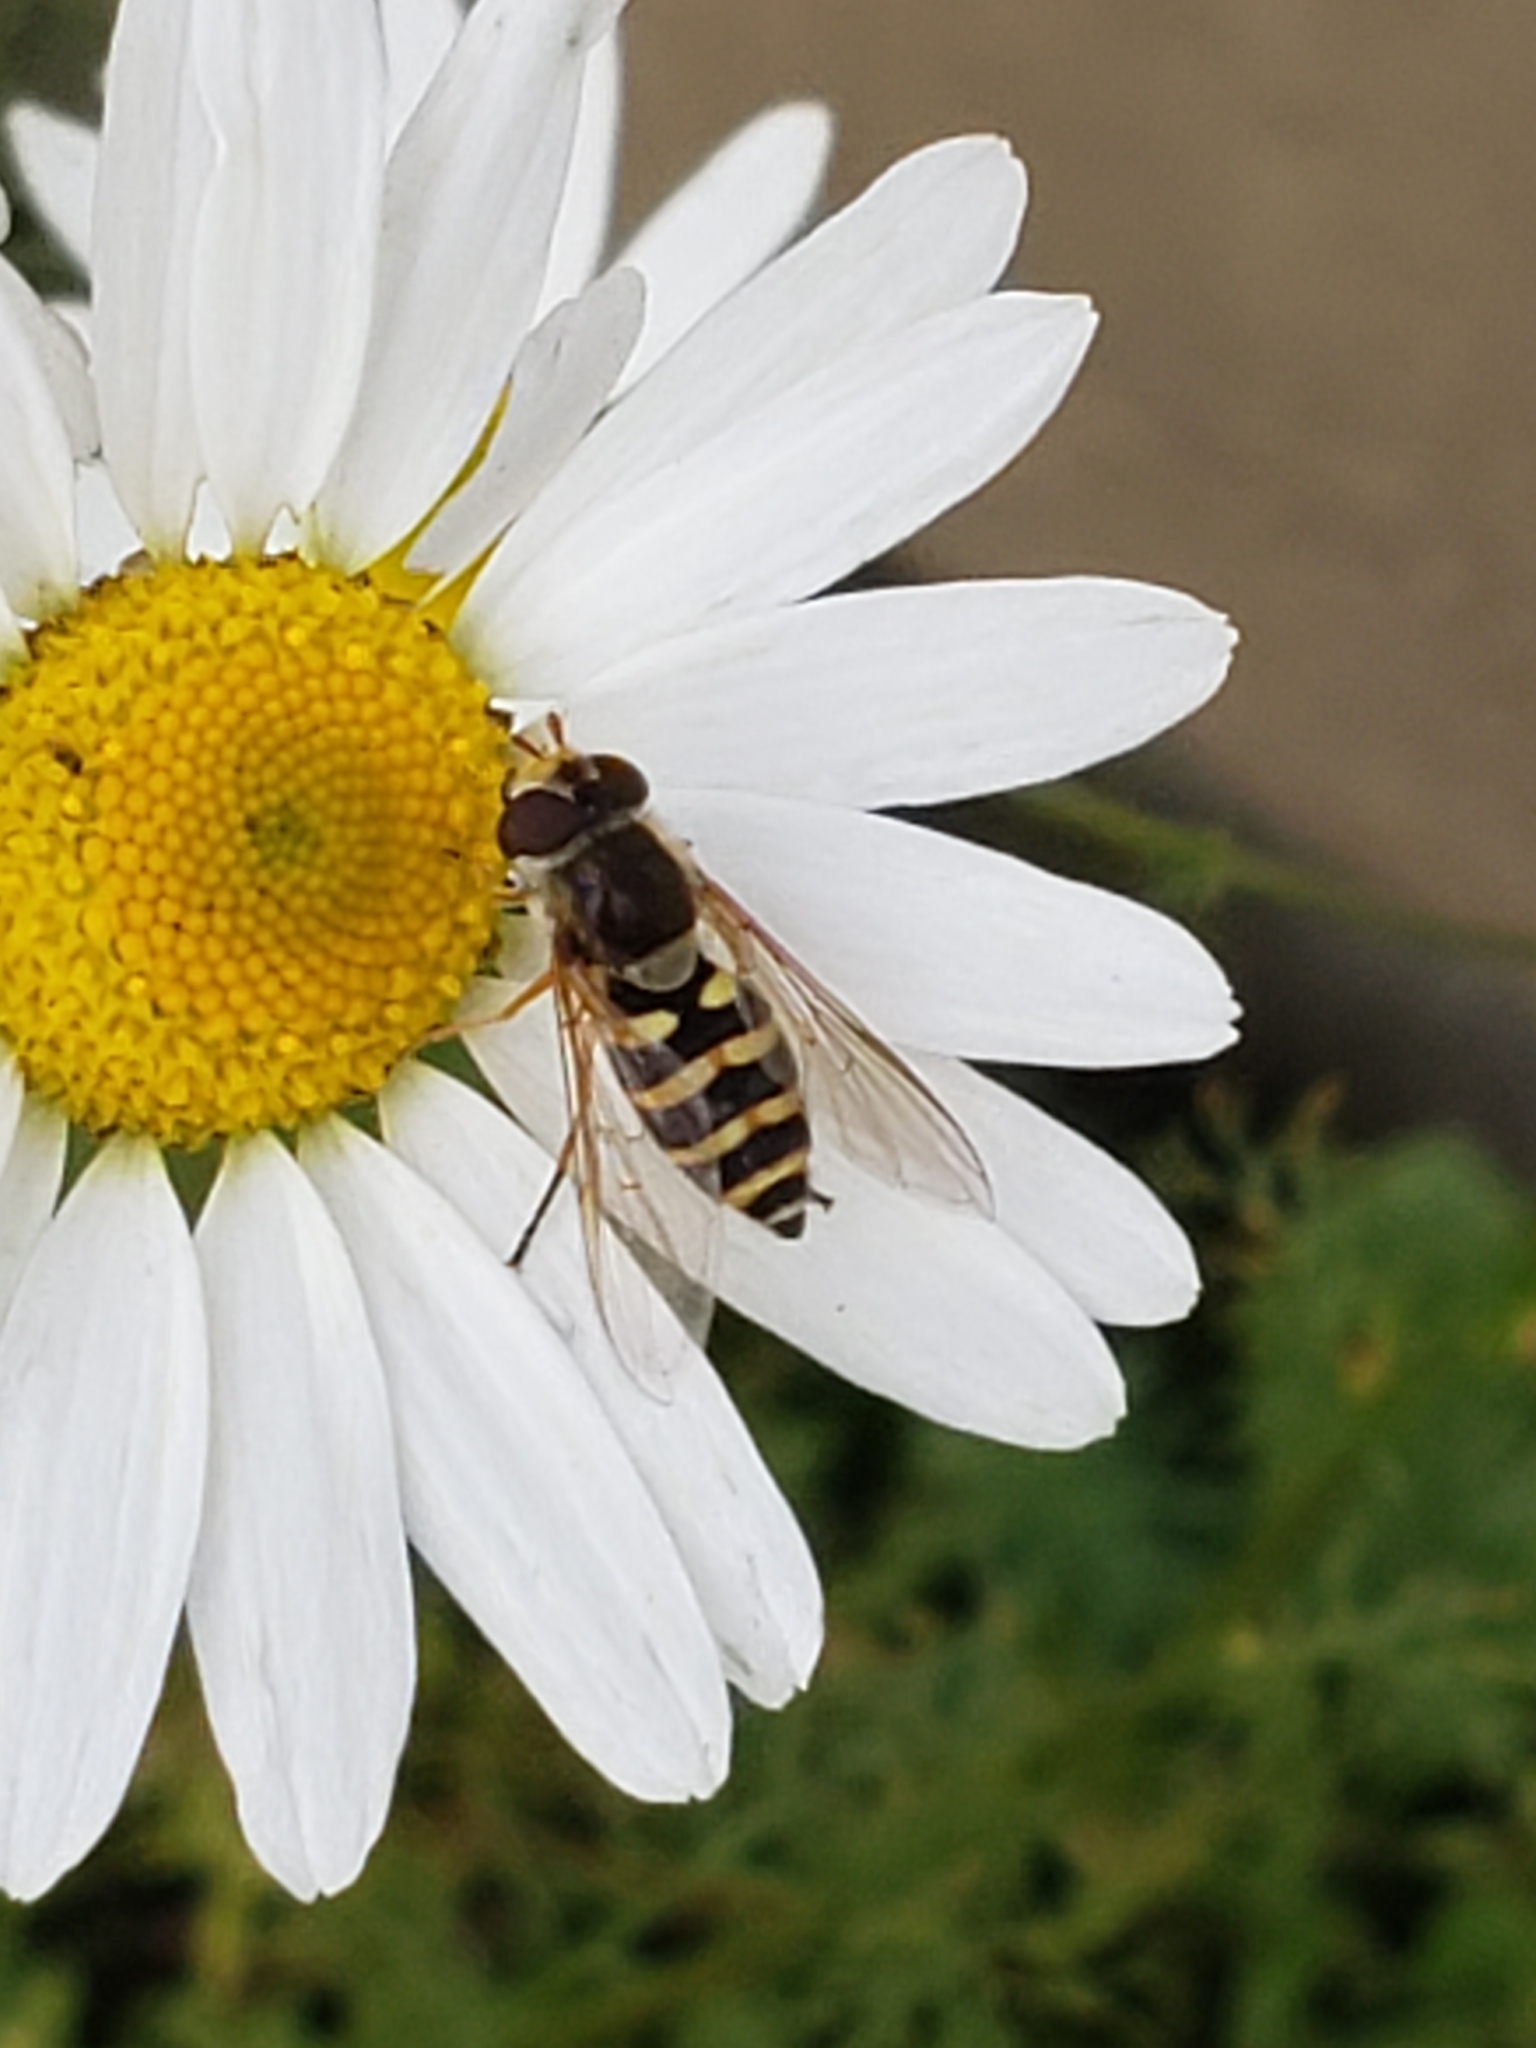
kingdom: Animalia
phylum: Arthropoda
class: Insecta
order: Diptera
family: Syrphidae
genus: Syrphus
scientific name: Syrphus ribesii
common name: Common flower fly
